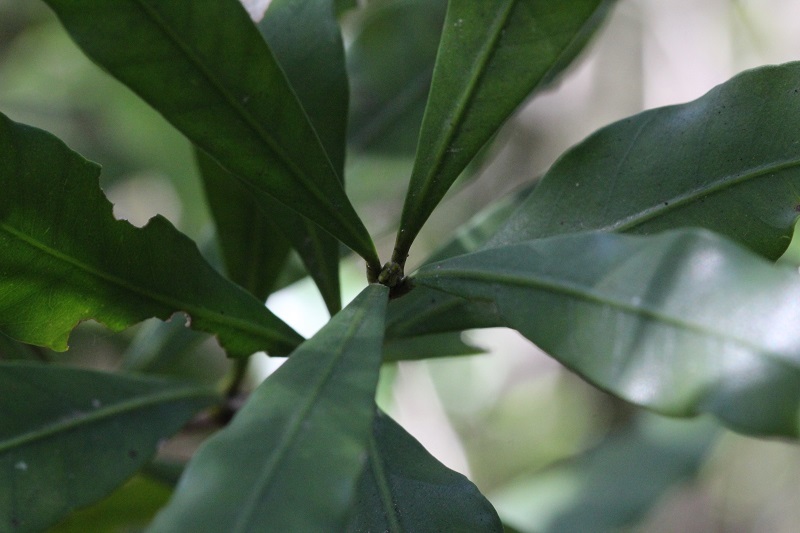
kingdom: Plantae
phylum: Tracheophyta
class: Magnoliopsida
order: Gentianales
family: Apocynaceae
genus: Gonioma
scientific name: Gonioma kamassi
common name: Kamassi
